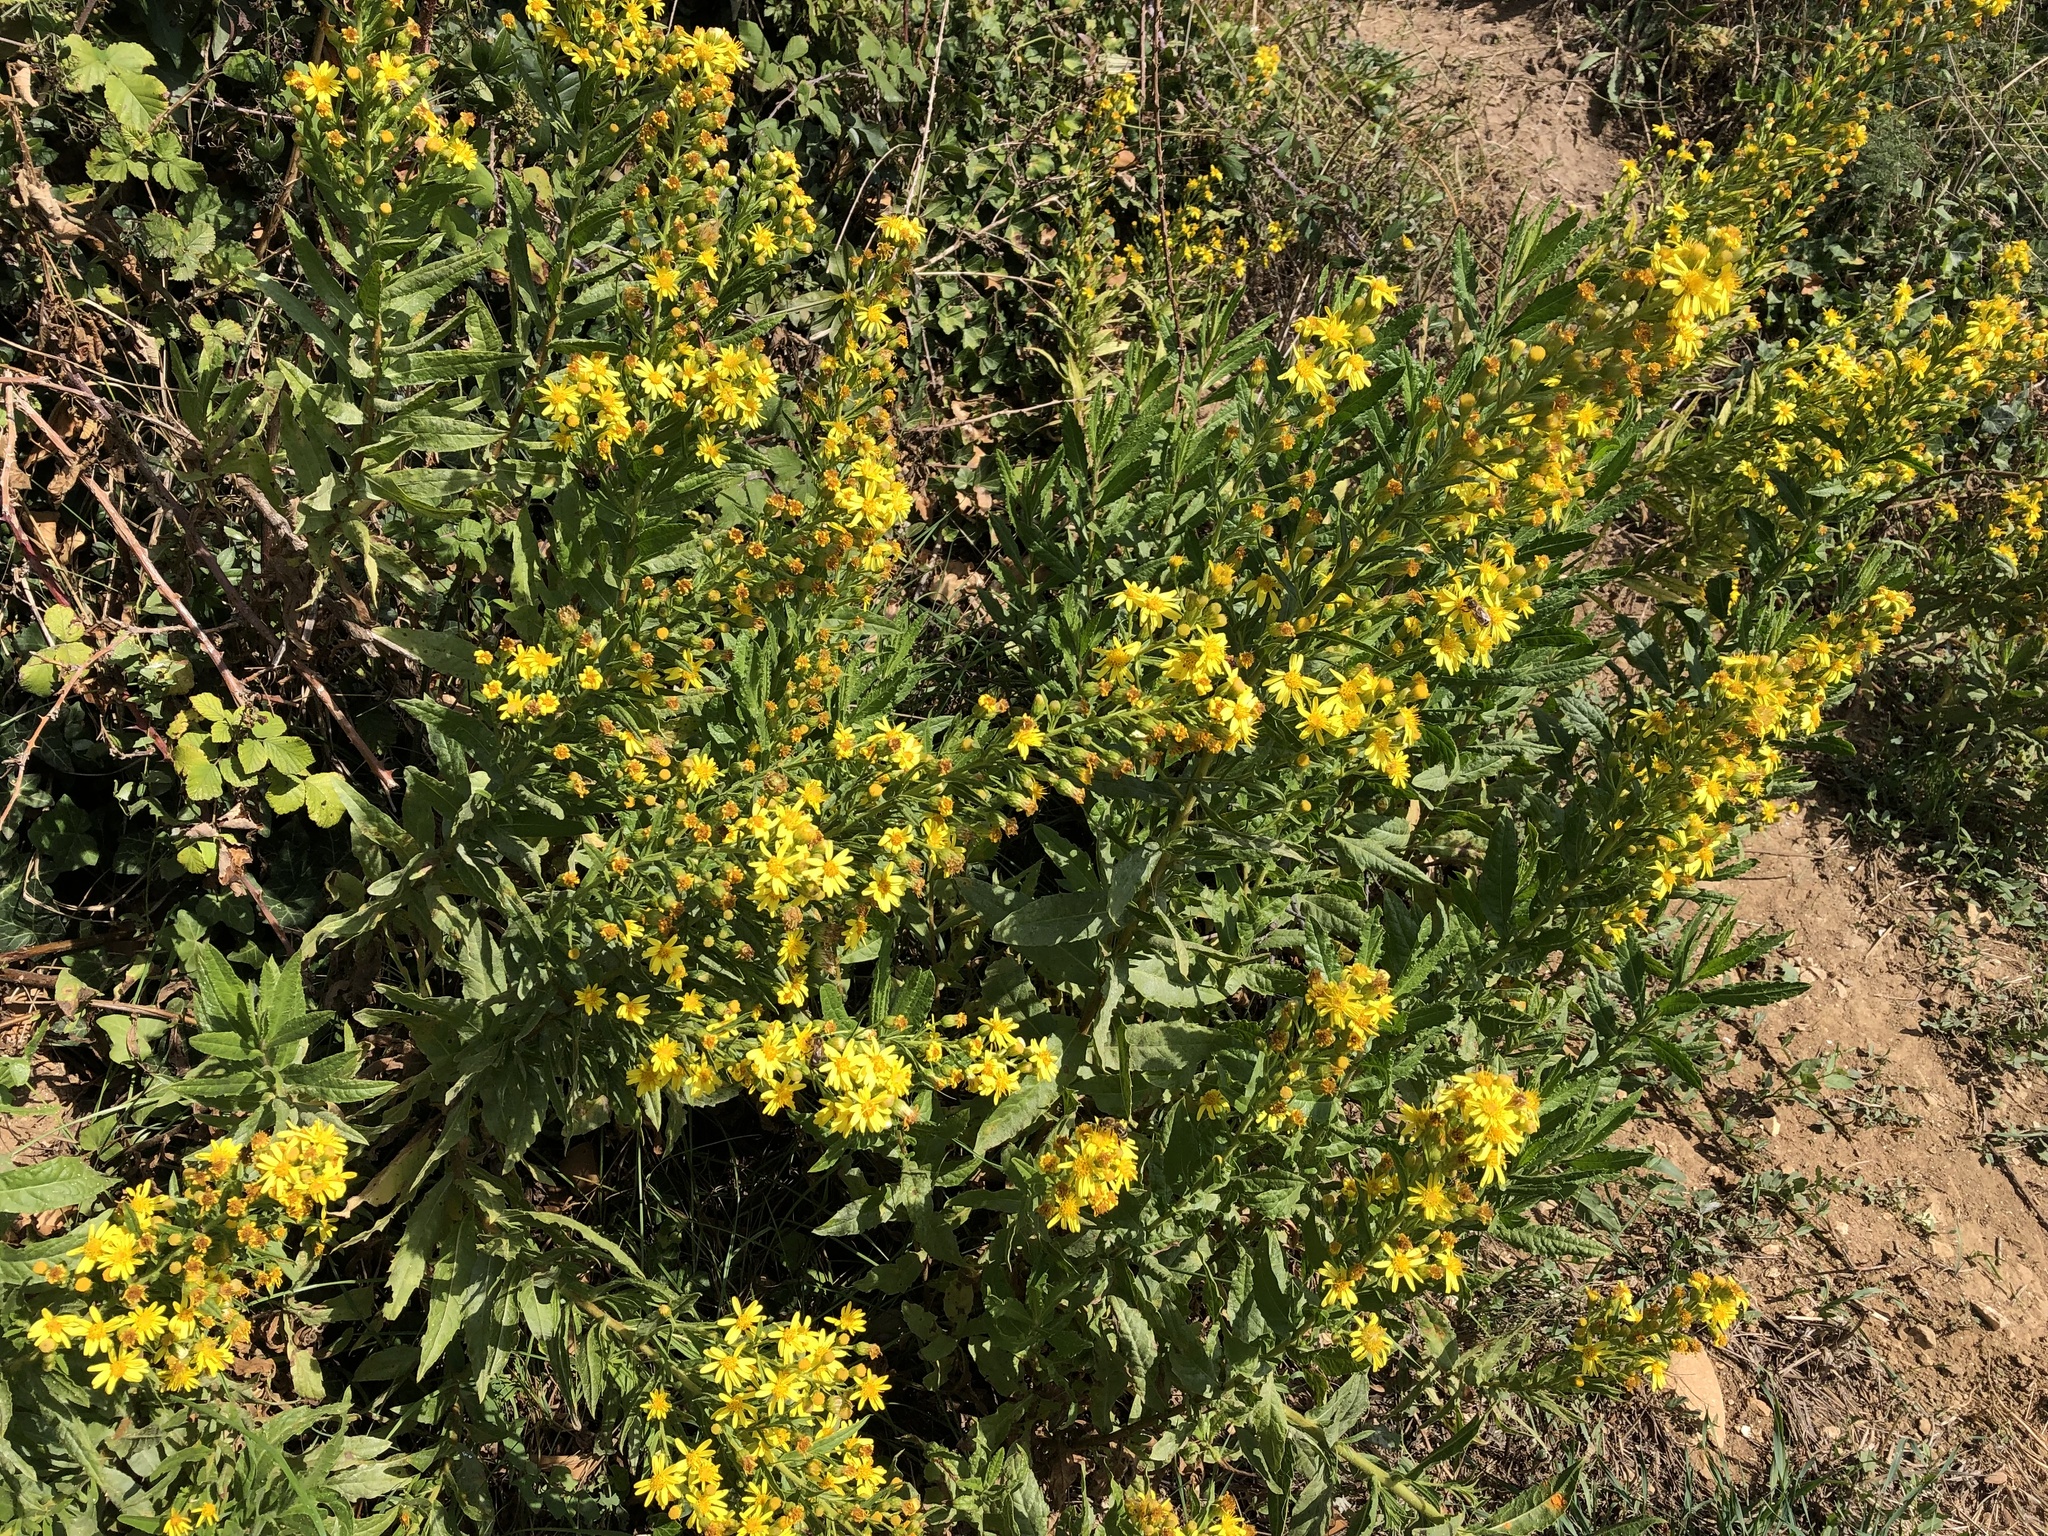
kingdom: Plantae
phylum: Tracheophyta
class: Magnoliopsida
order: Asterales
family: Asteraceae
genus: Dittrichia
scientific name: Dittrichia viscosa
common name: Woody fleabane
